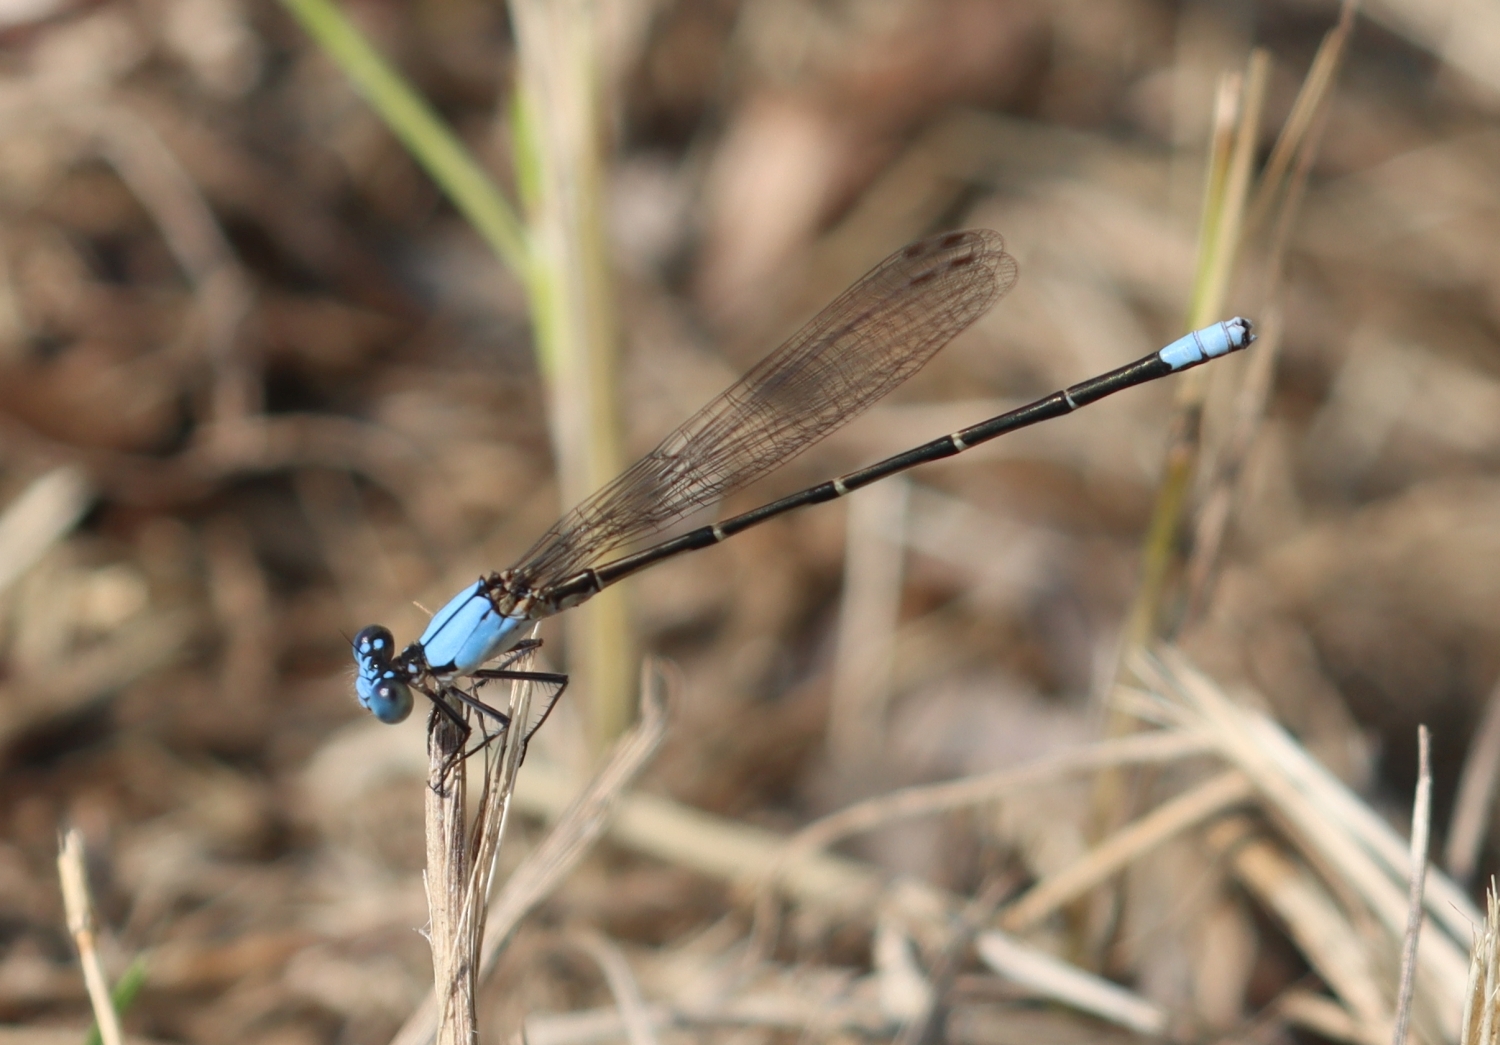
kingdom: Animalia
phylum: Arthropoda
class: Insecta
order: Odonata
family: Coenagrionidae
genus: Argia
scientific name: Argia apicalis
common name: Blue-fronted dancer
